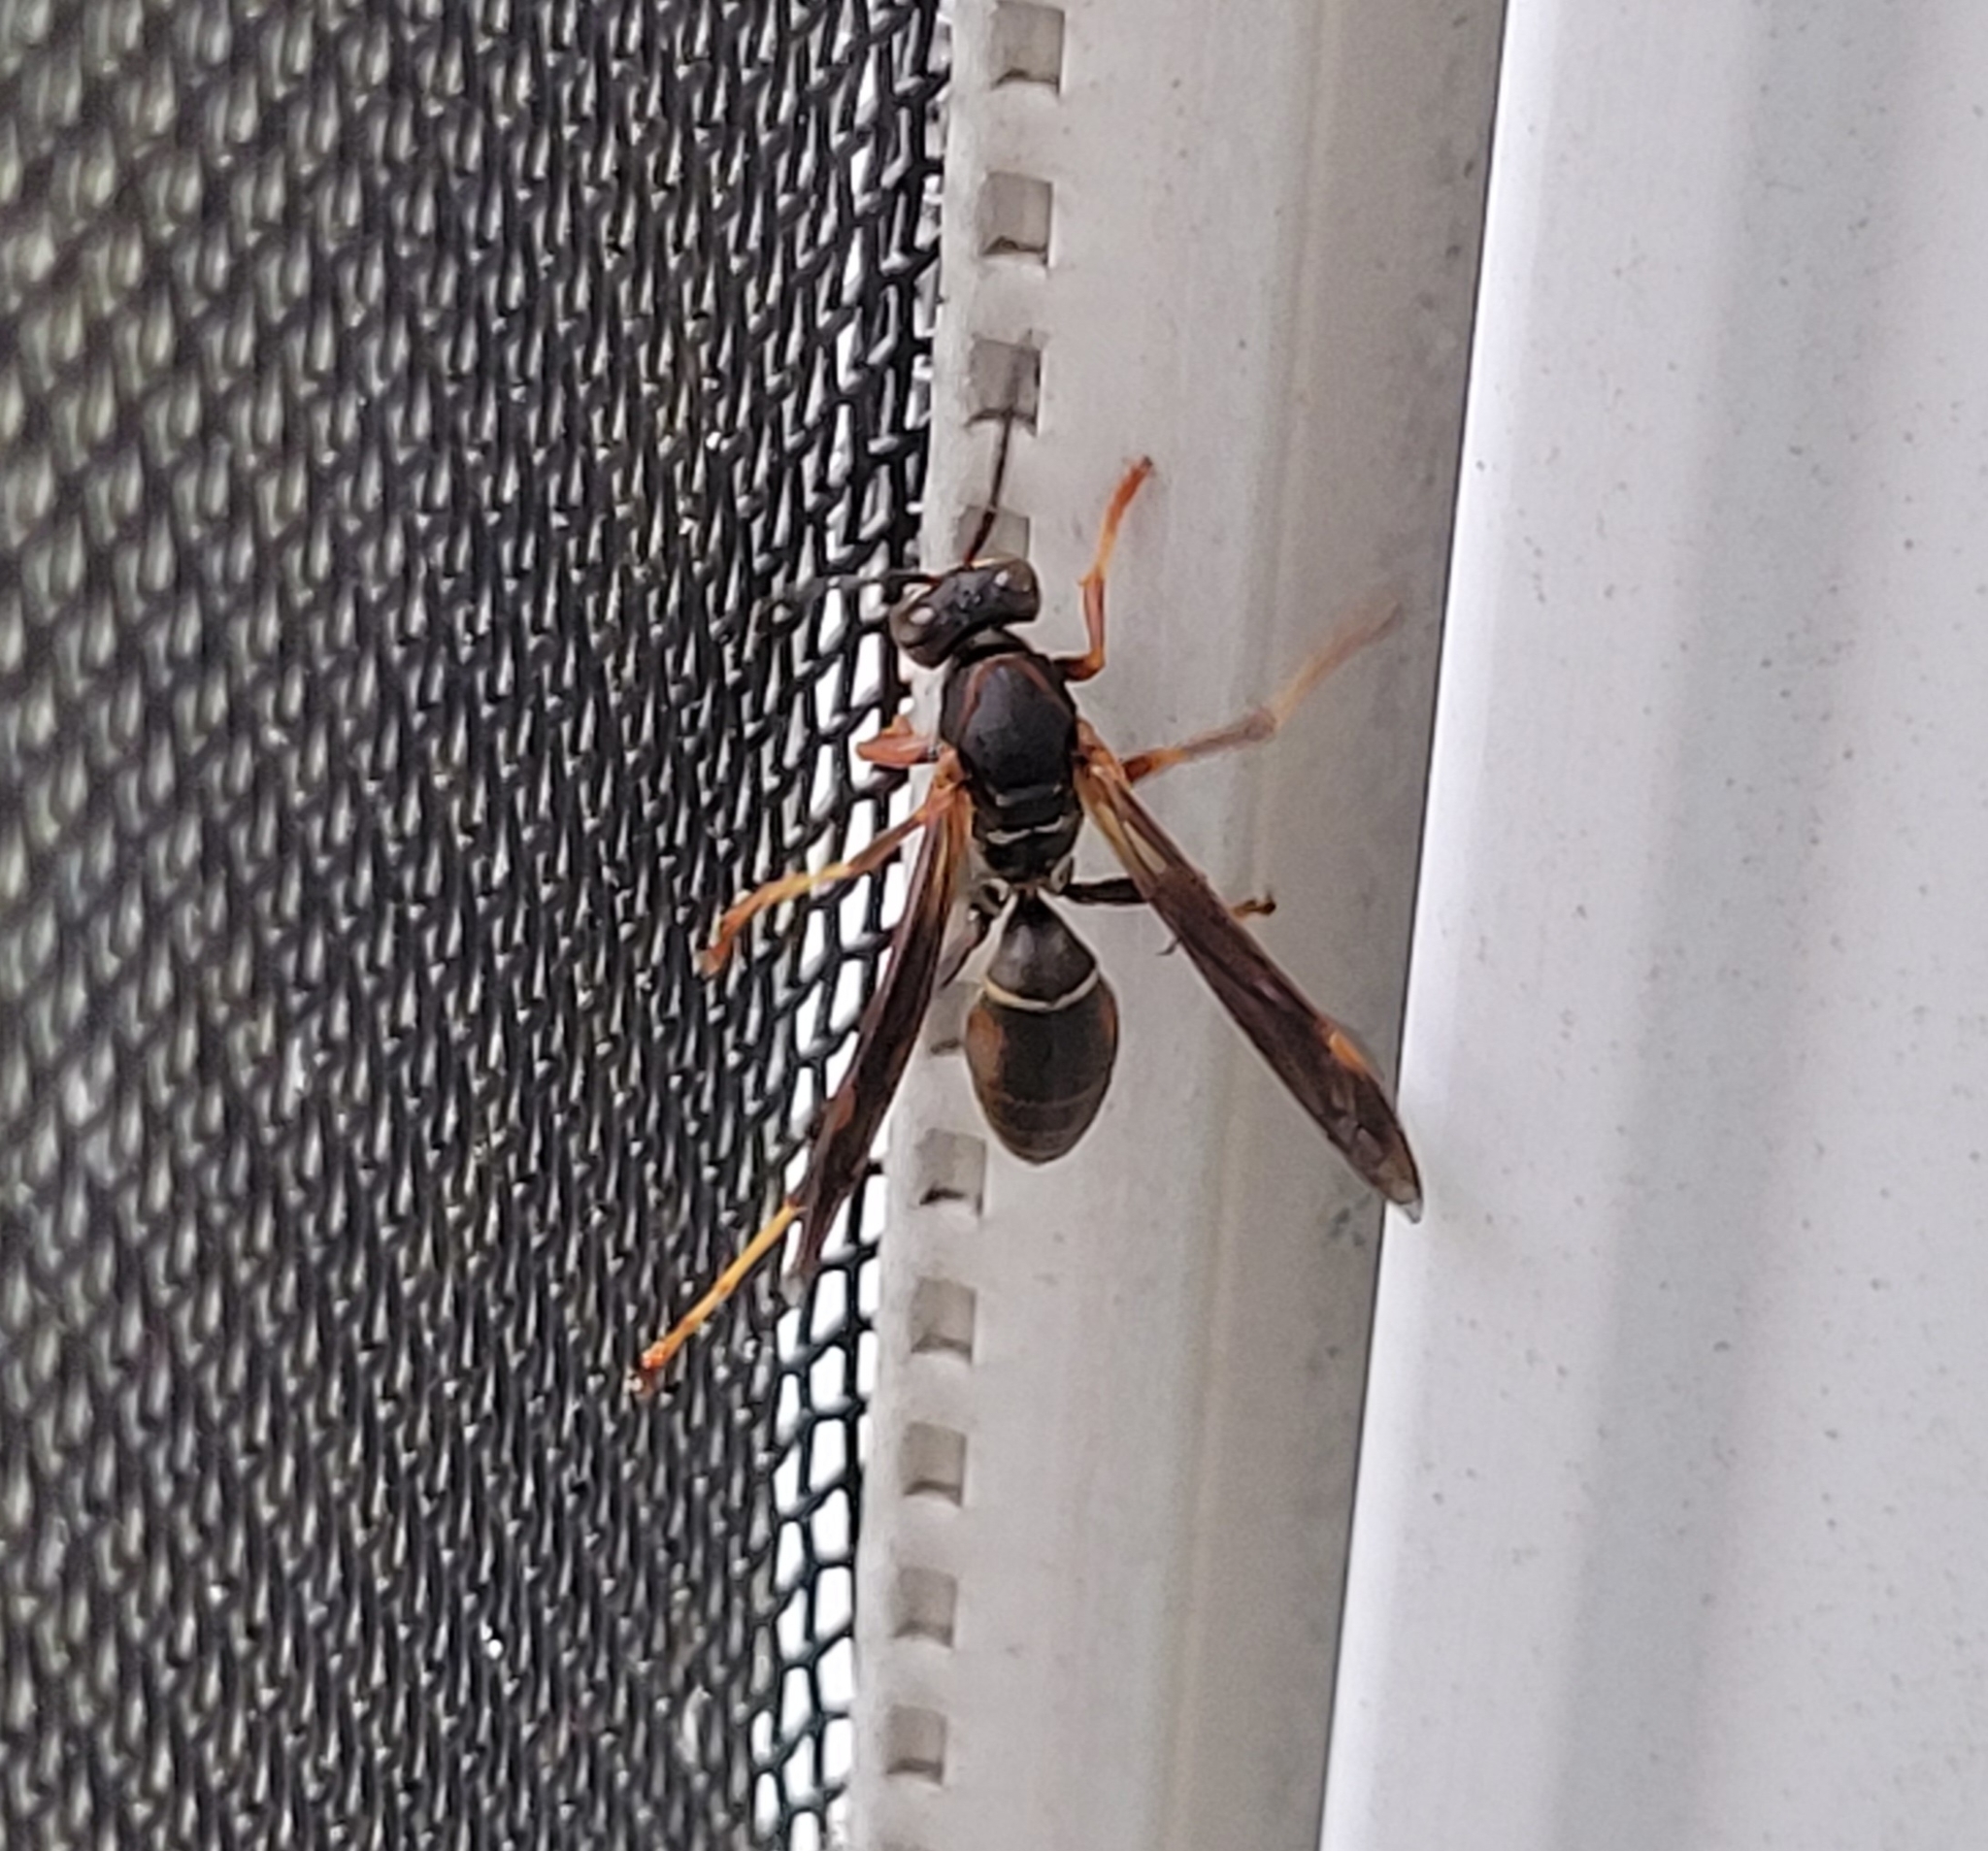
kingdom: Animalia
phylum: Arthropoda
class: Insecta
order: Hymenoptera
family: Eumenidae
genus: Polistes
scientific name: Polistes fuscatus
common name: Dark paper wasp
